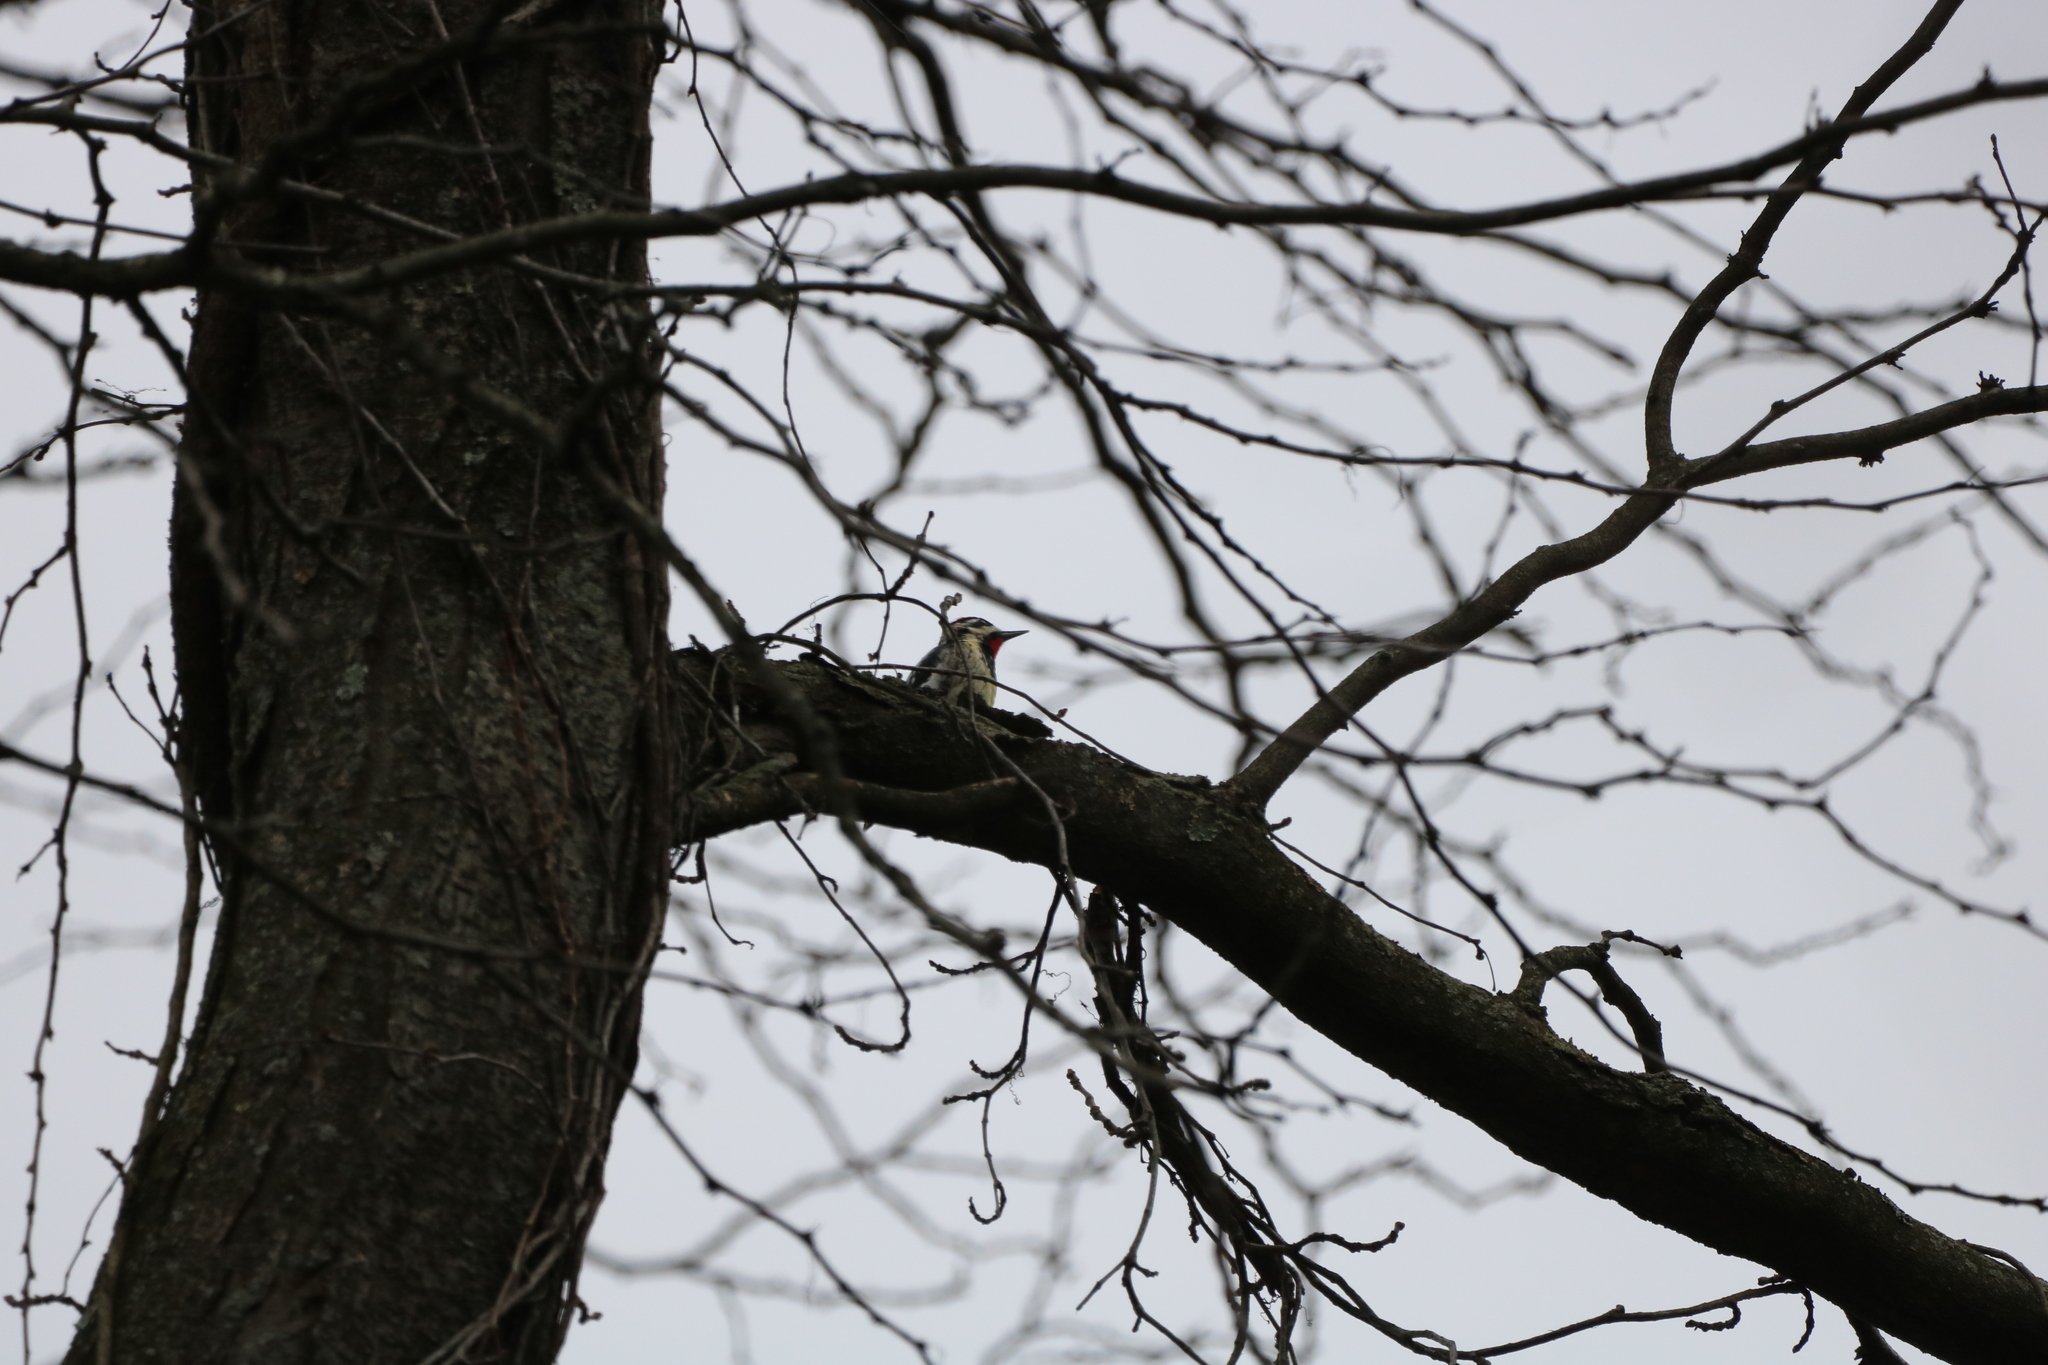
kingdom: Animalia
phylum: Chordata
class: Aves
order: Piciformes
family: Picidae
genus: Sphyrapicus
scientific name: Sphyrapicus varius
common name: Yellow-bellied sapsucker
